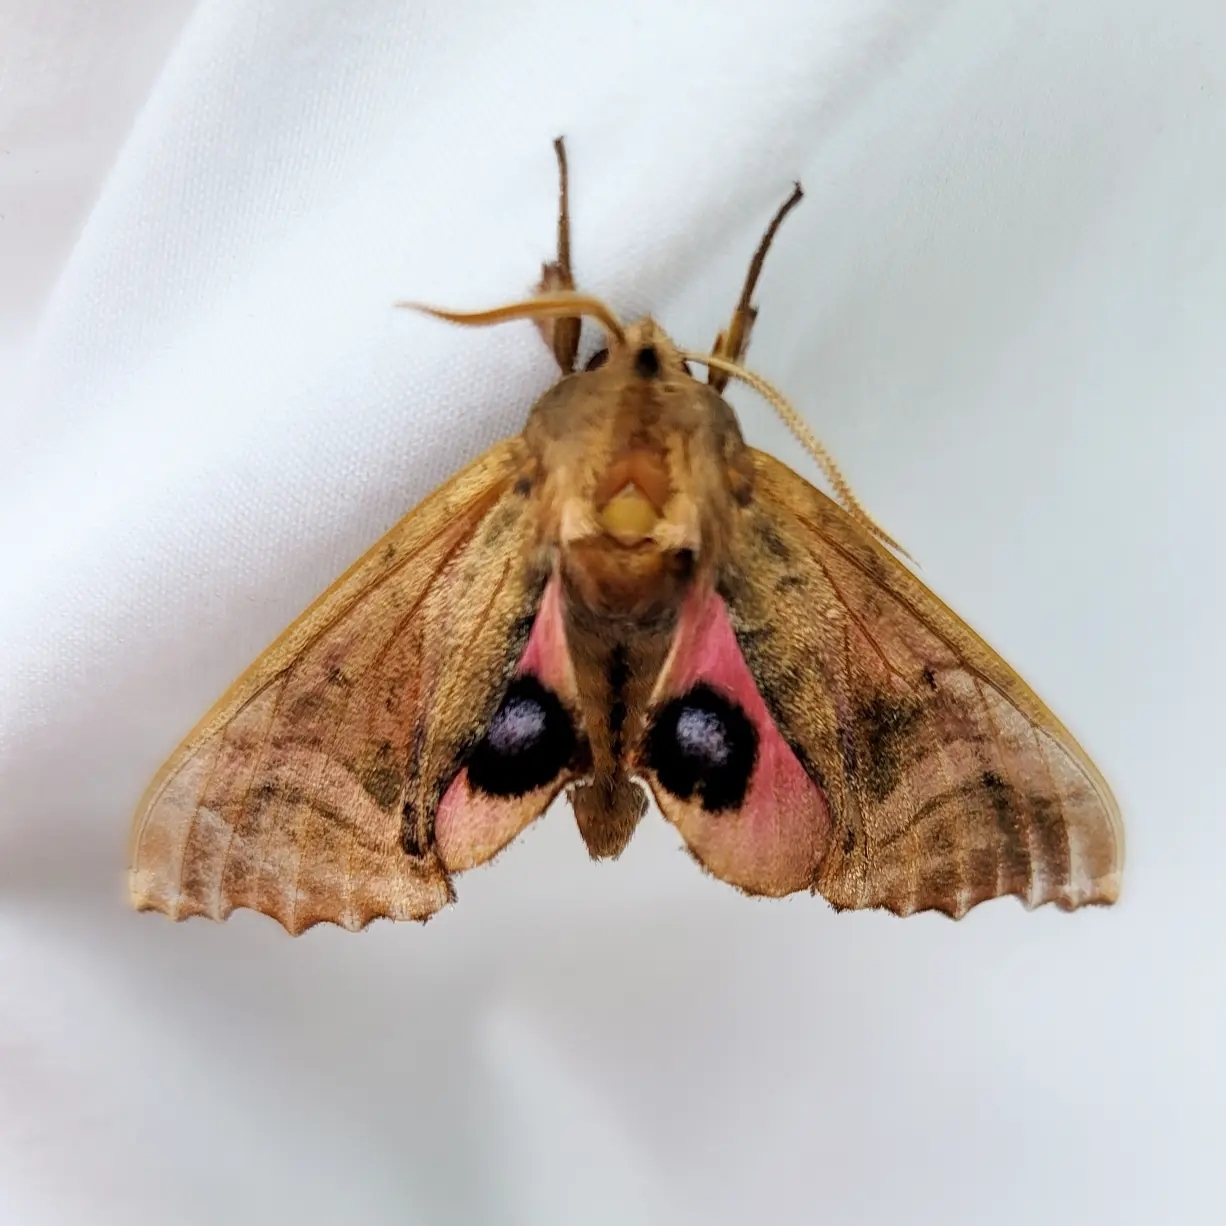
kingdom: Animalia
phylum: Arthropoda
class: Insecta
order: Lepidoptera
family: Sphingidae
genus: Paonias
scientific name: Paonias excaecata
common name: Blind-eyed sphinx
